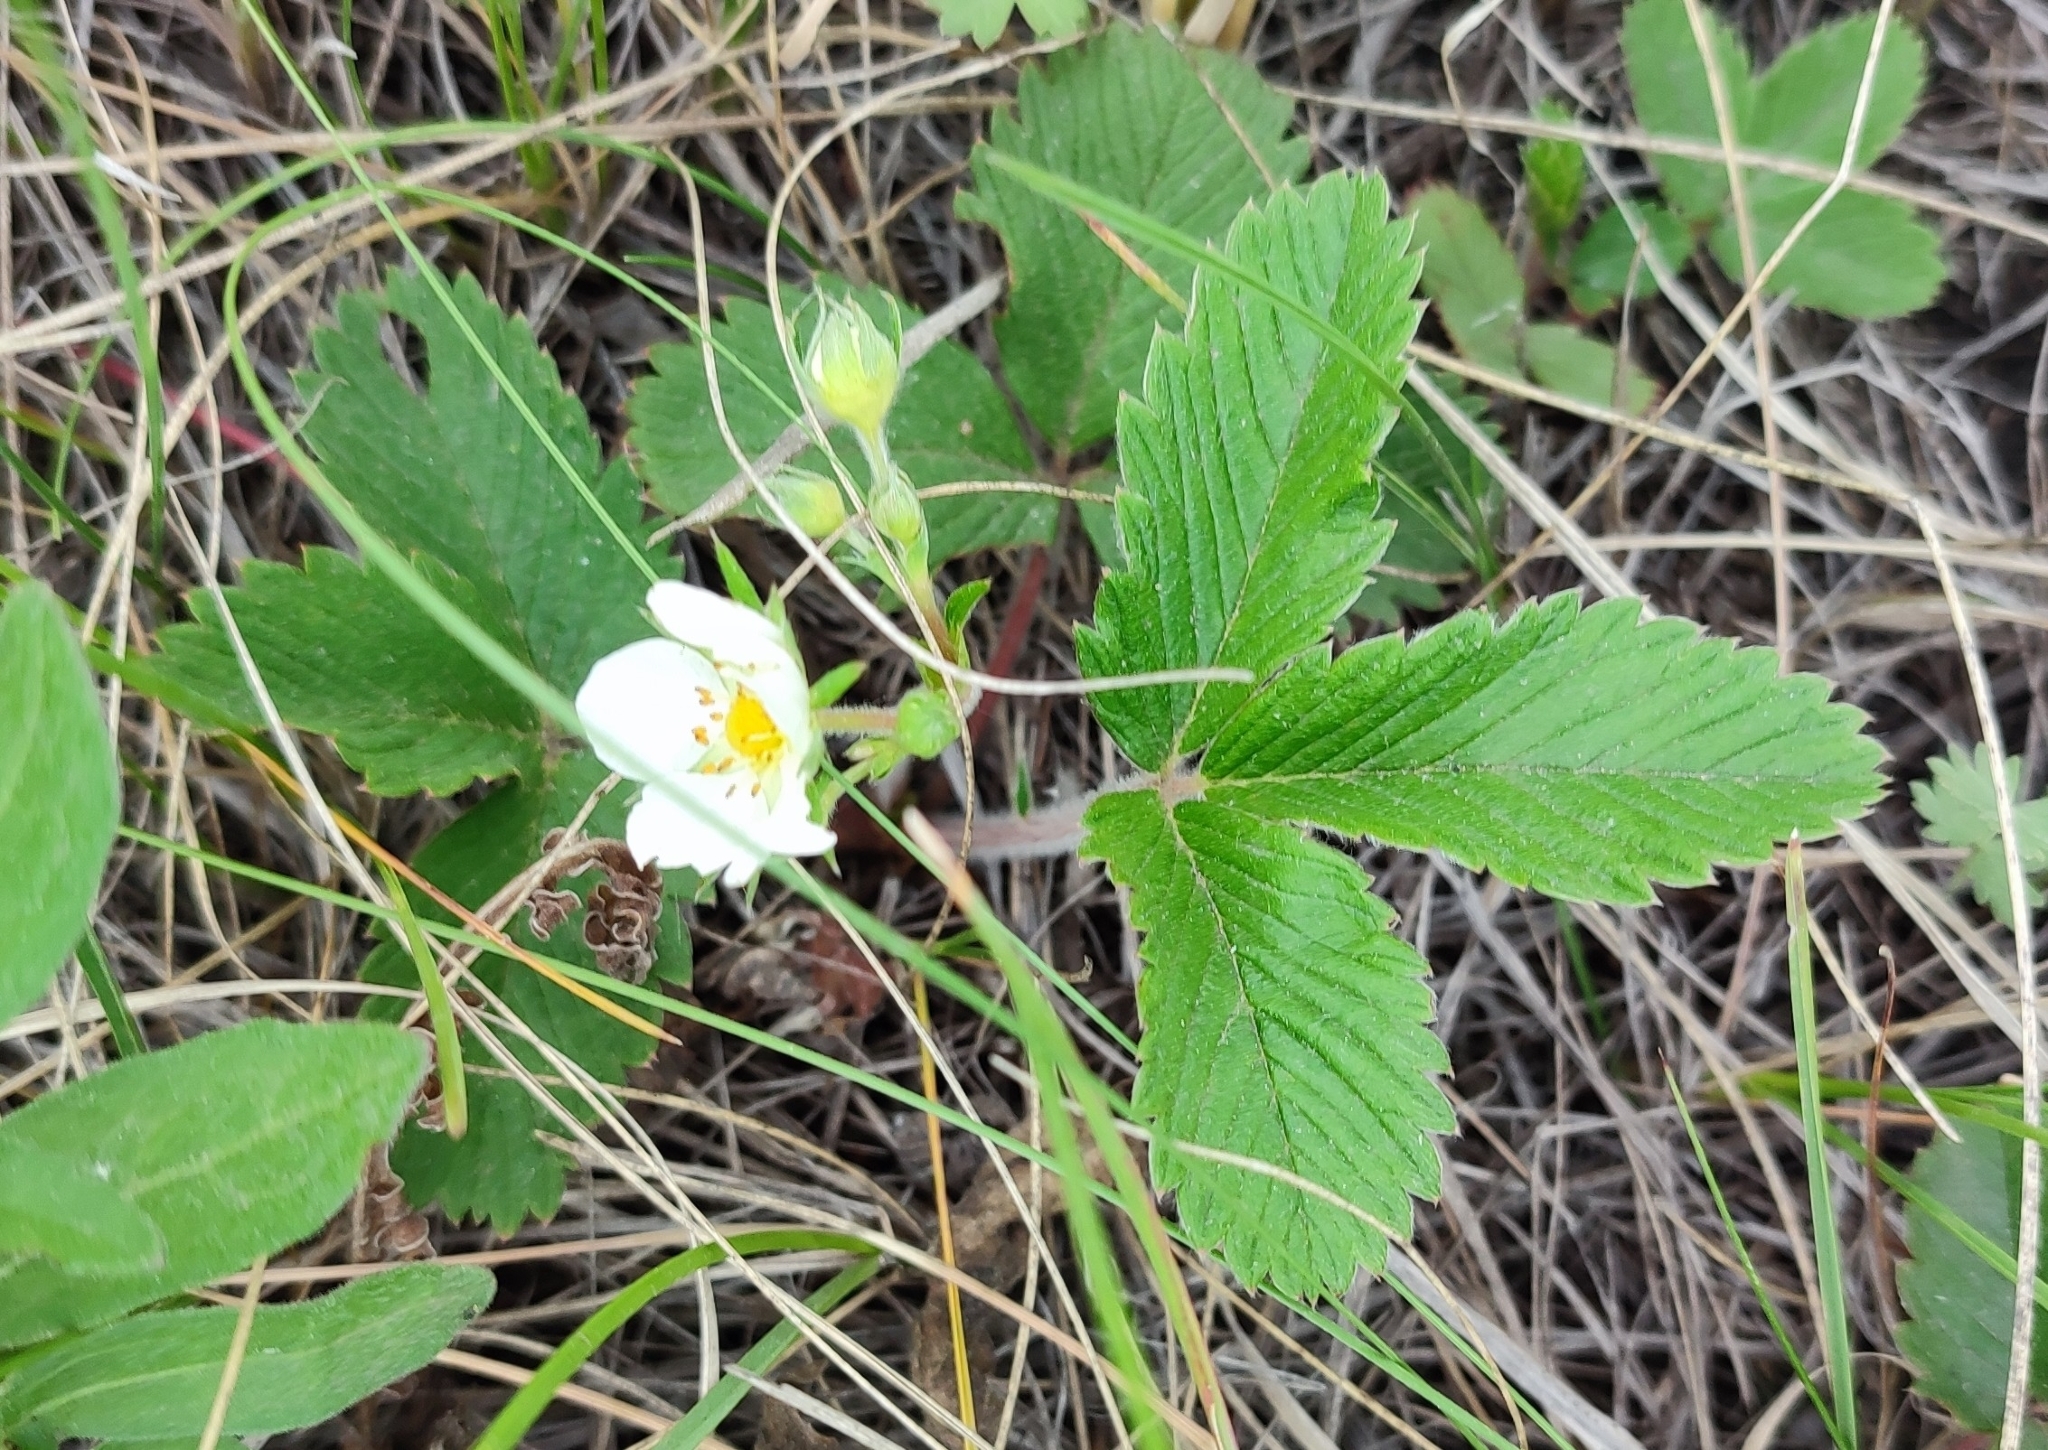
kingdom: Plantae
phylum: Tracheophyta
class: Magnoliopsida
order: Rosales
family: Rosaceae
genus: Fragaria
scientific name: Fragaria viridis
